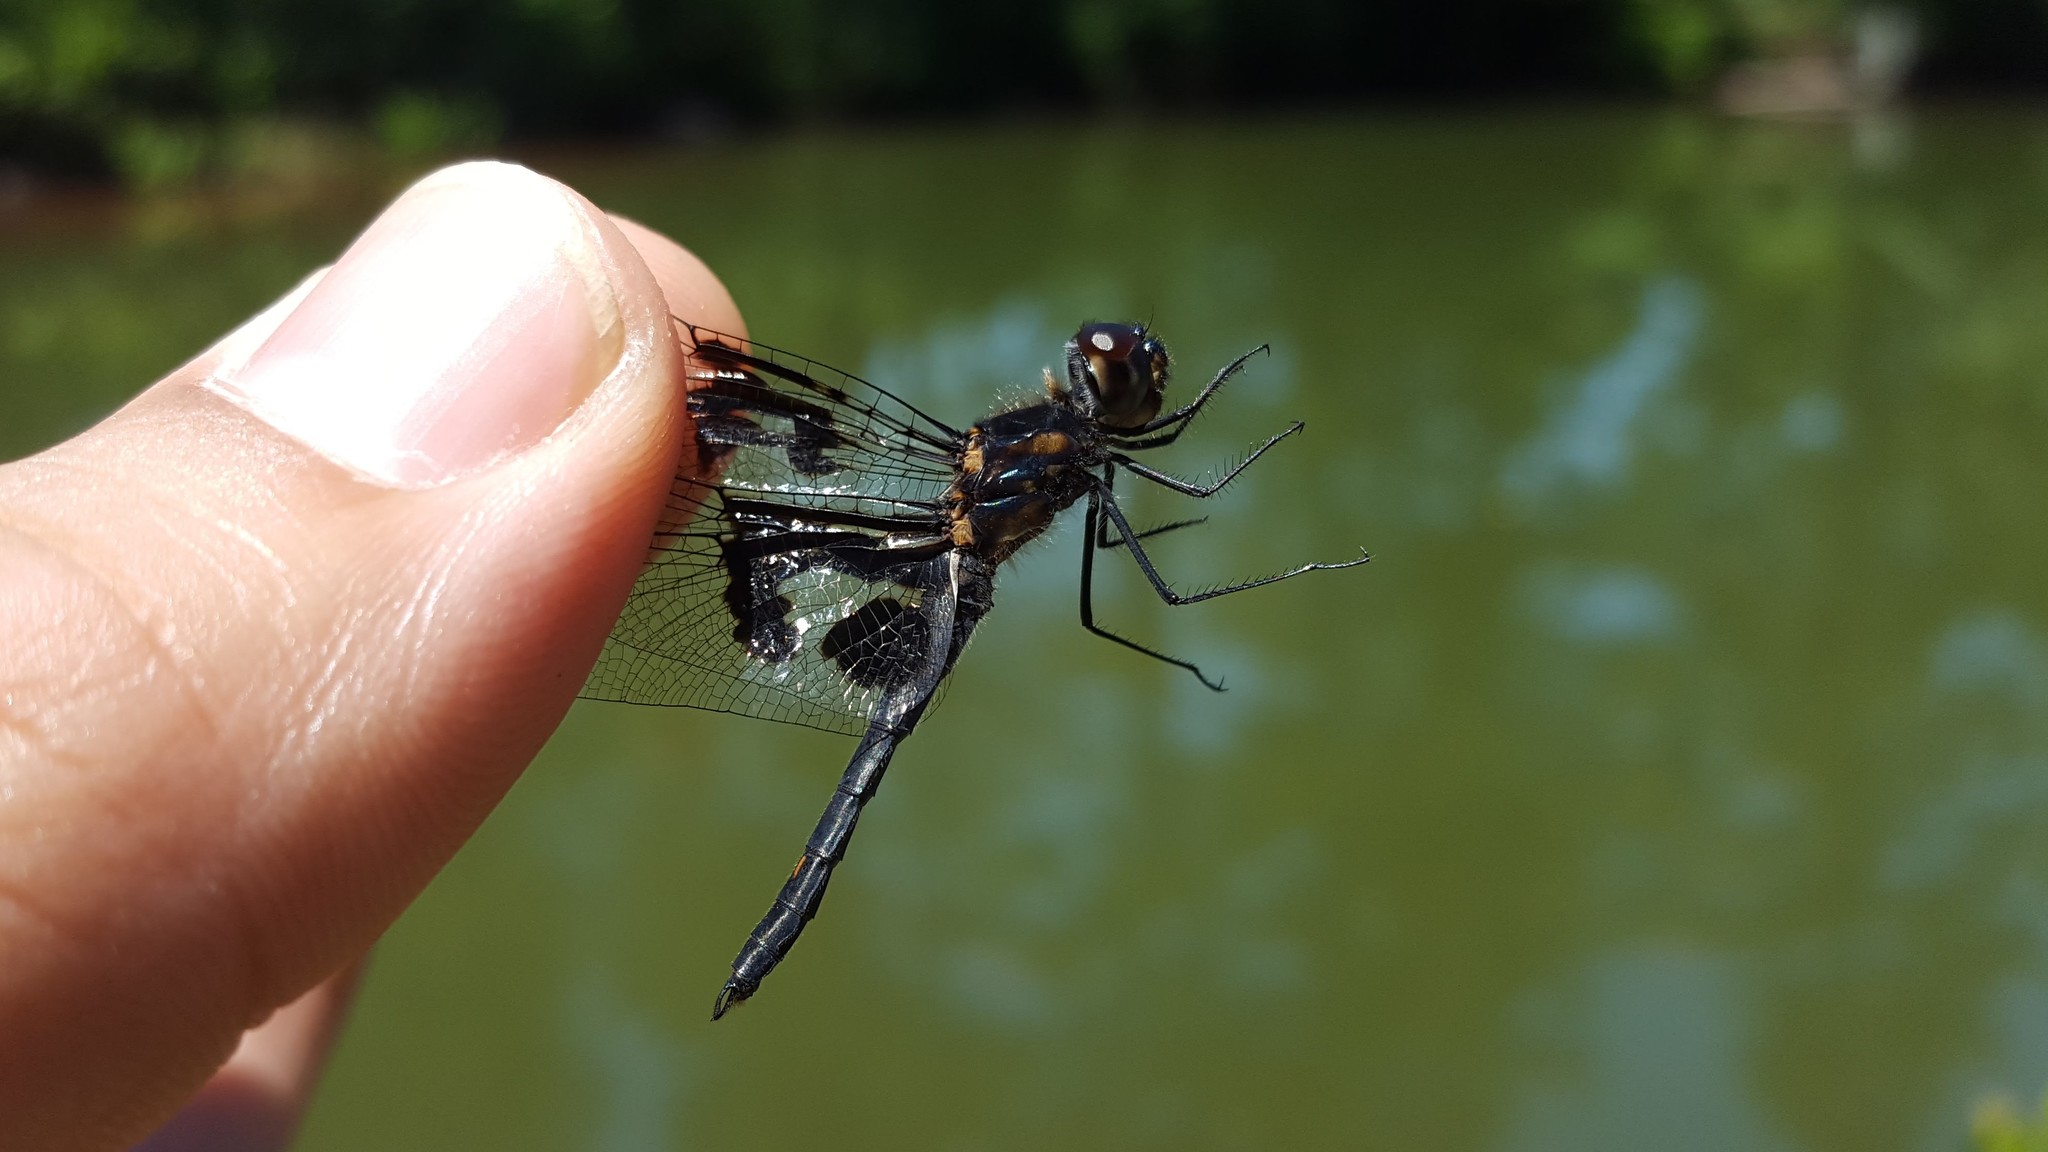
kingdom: Animalia
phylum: Arthropoda
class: Insecta
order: Odonata
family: Libellulidae
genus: Celithemis
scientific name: Celithemis fasciata
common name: Banded pennant
